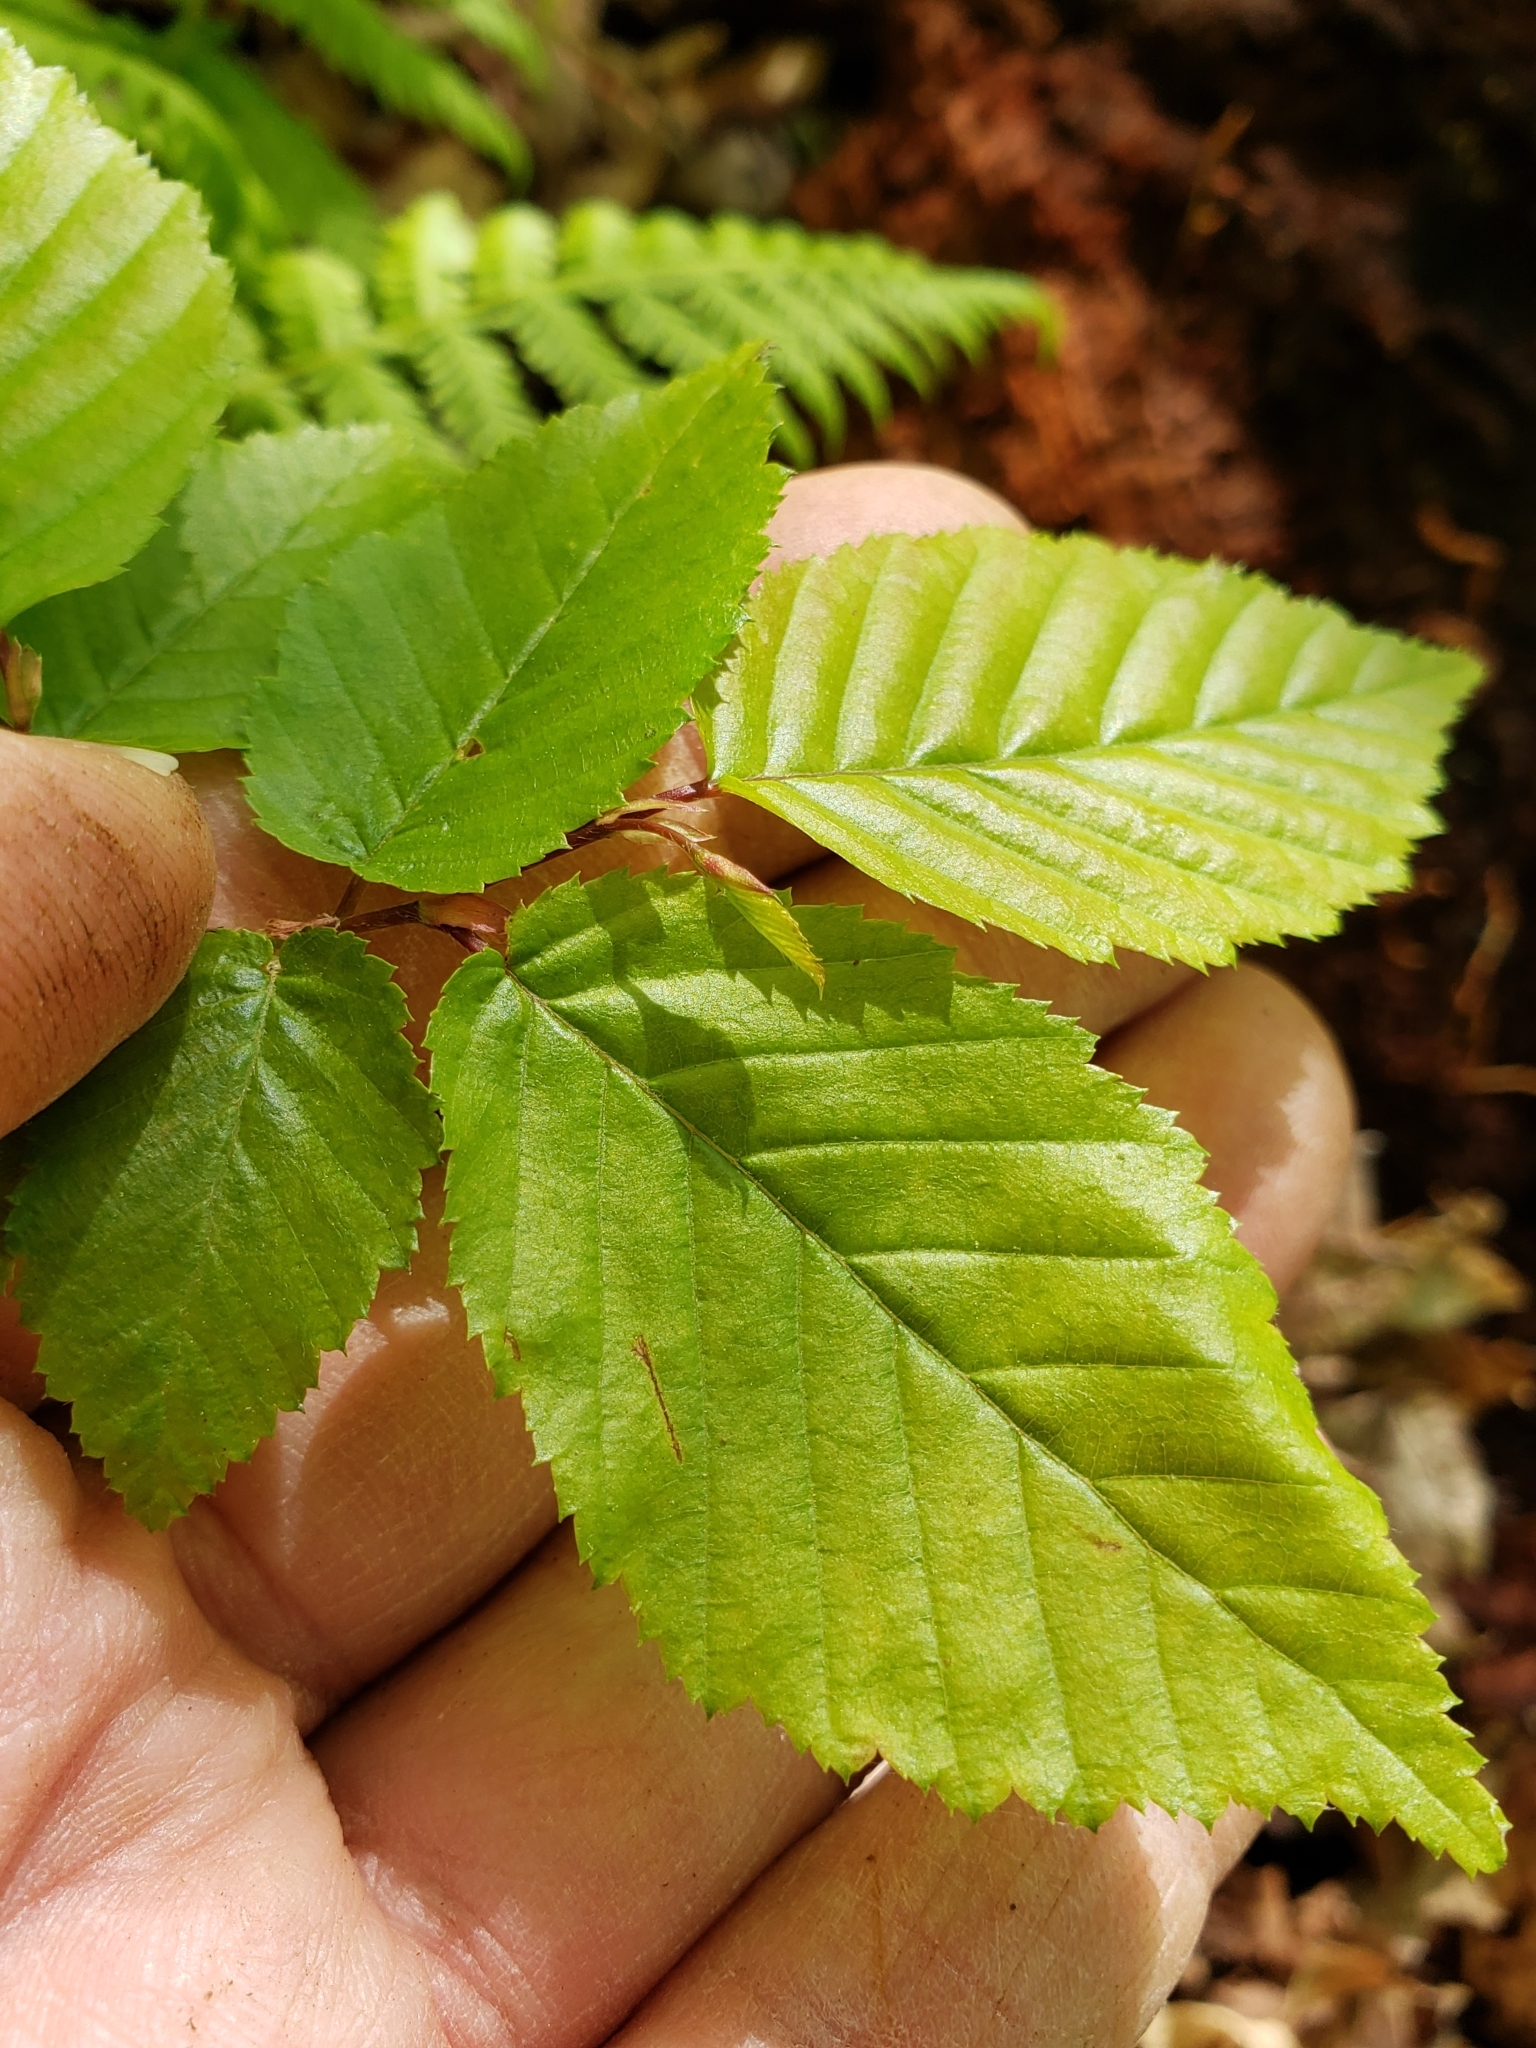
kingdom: Animalia
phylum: Arthropoda
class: Insecta
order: Diptera
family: Cecidomyiidae
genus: Dasineura
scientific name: Dasineura pudibunda
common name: Hornbeam leaf gall midge
